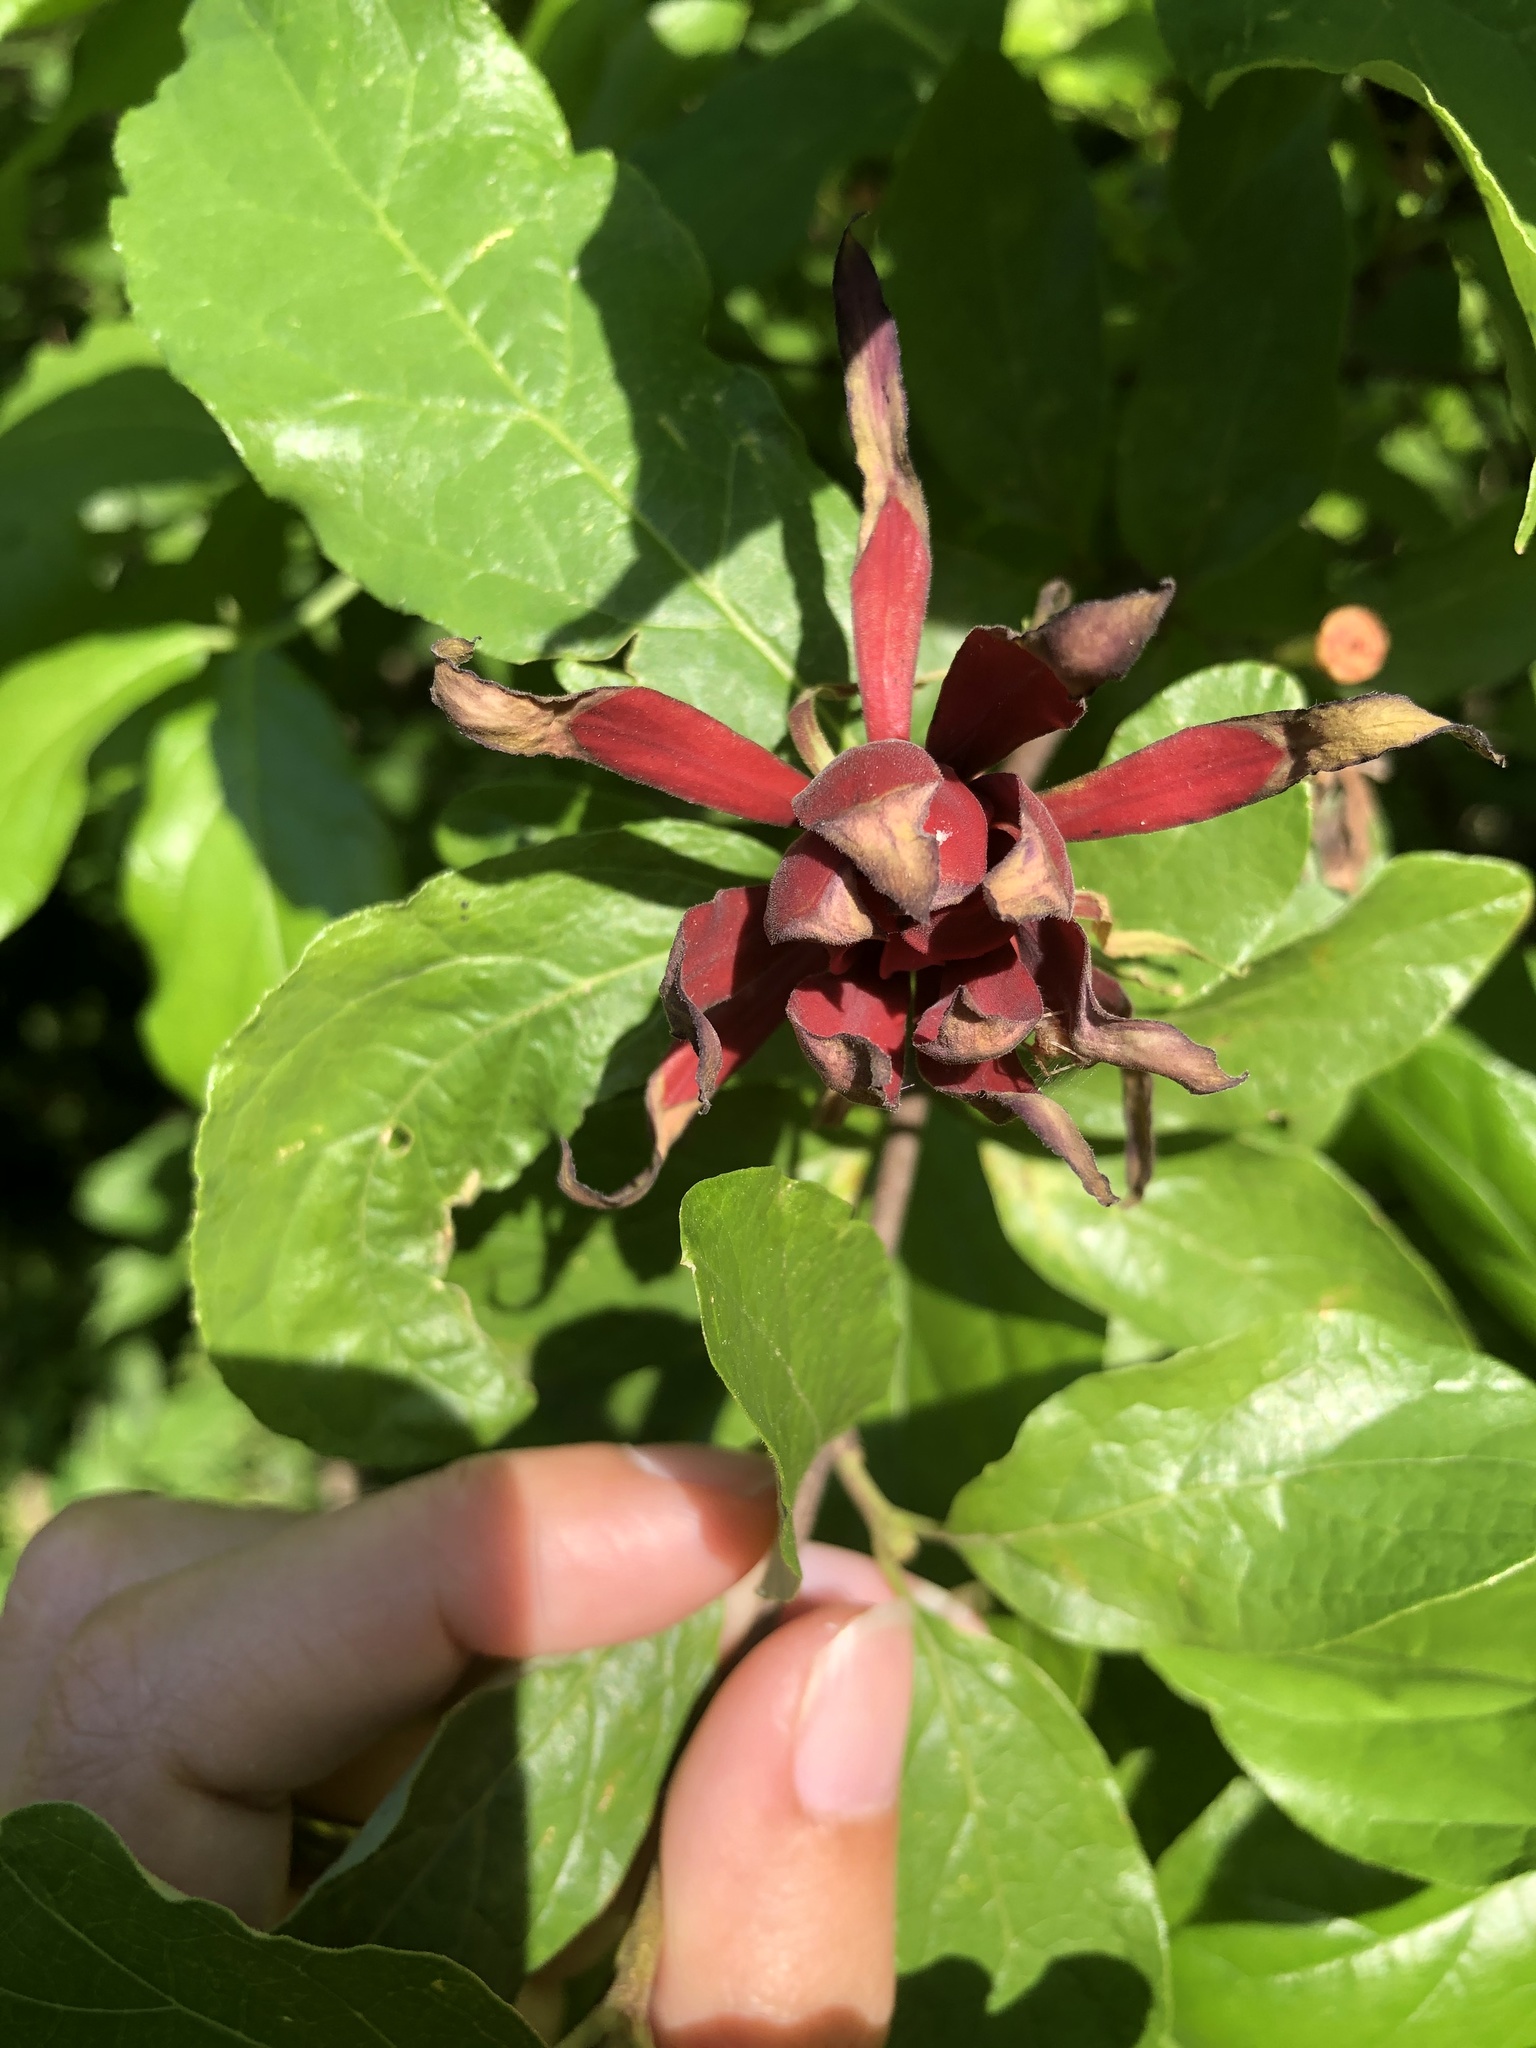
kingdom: Plantae
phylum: Tracheophyta
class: Magnoliopsida
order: Laurales
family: Calycanthaceae
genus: Calycanthus
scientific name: Calycanthus floridus
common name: Carolina-allspice
